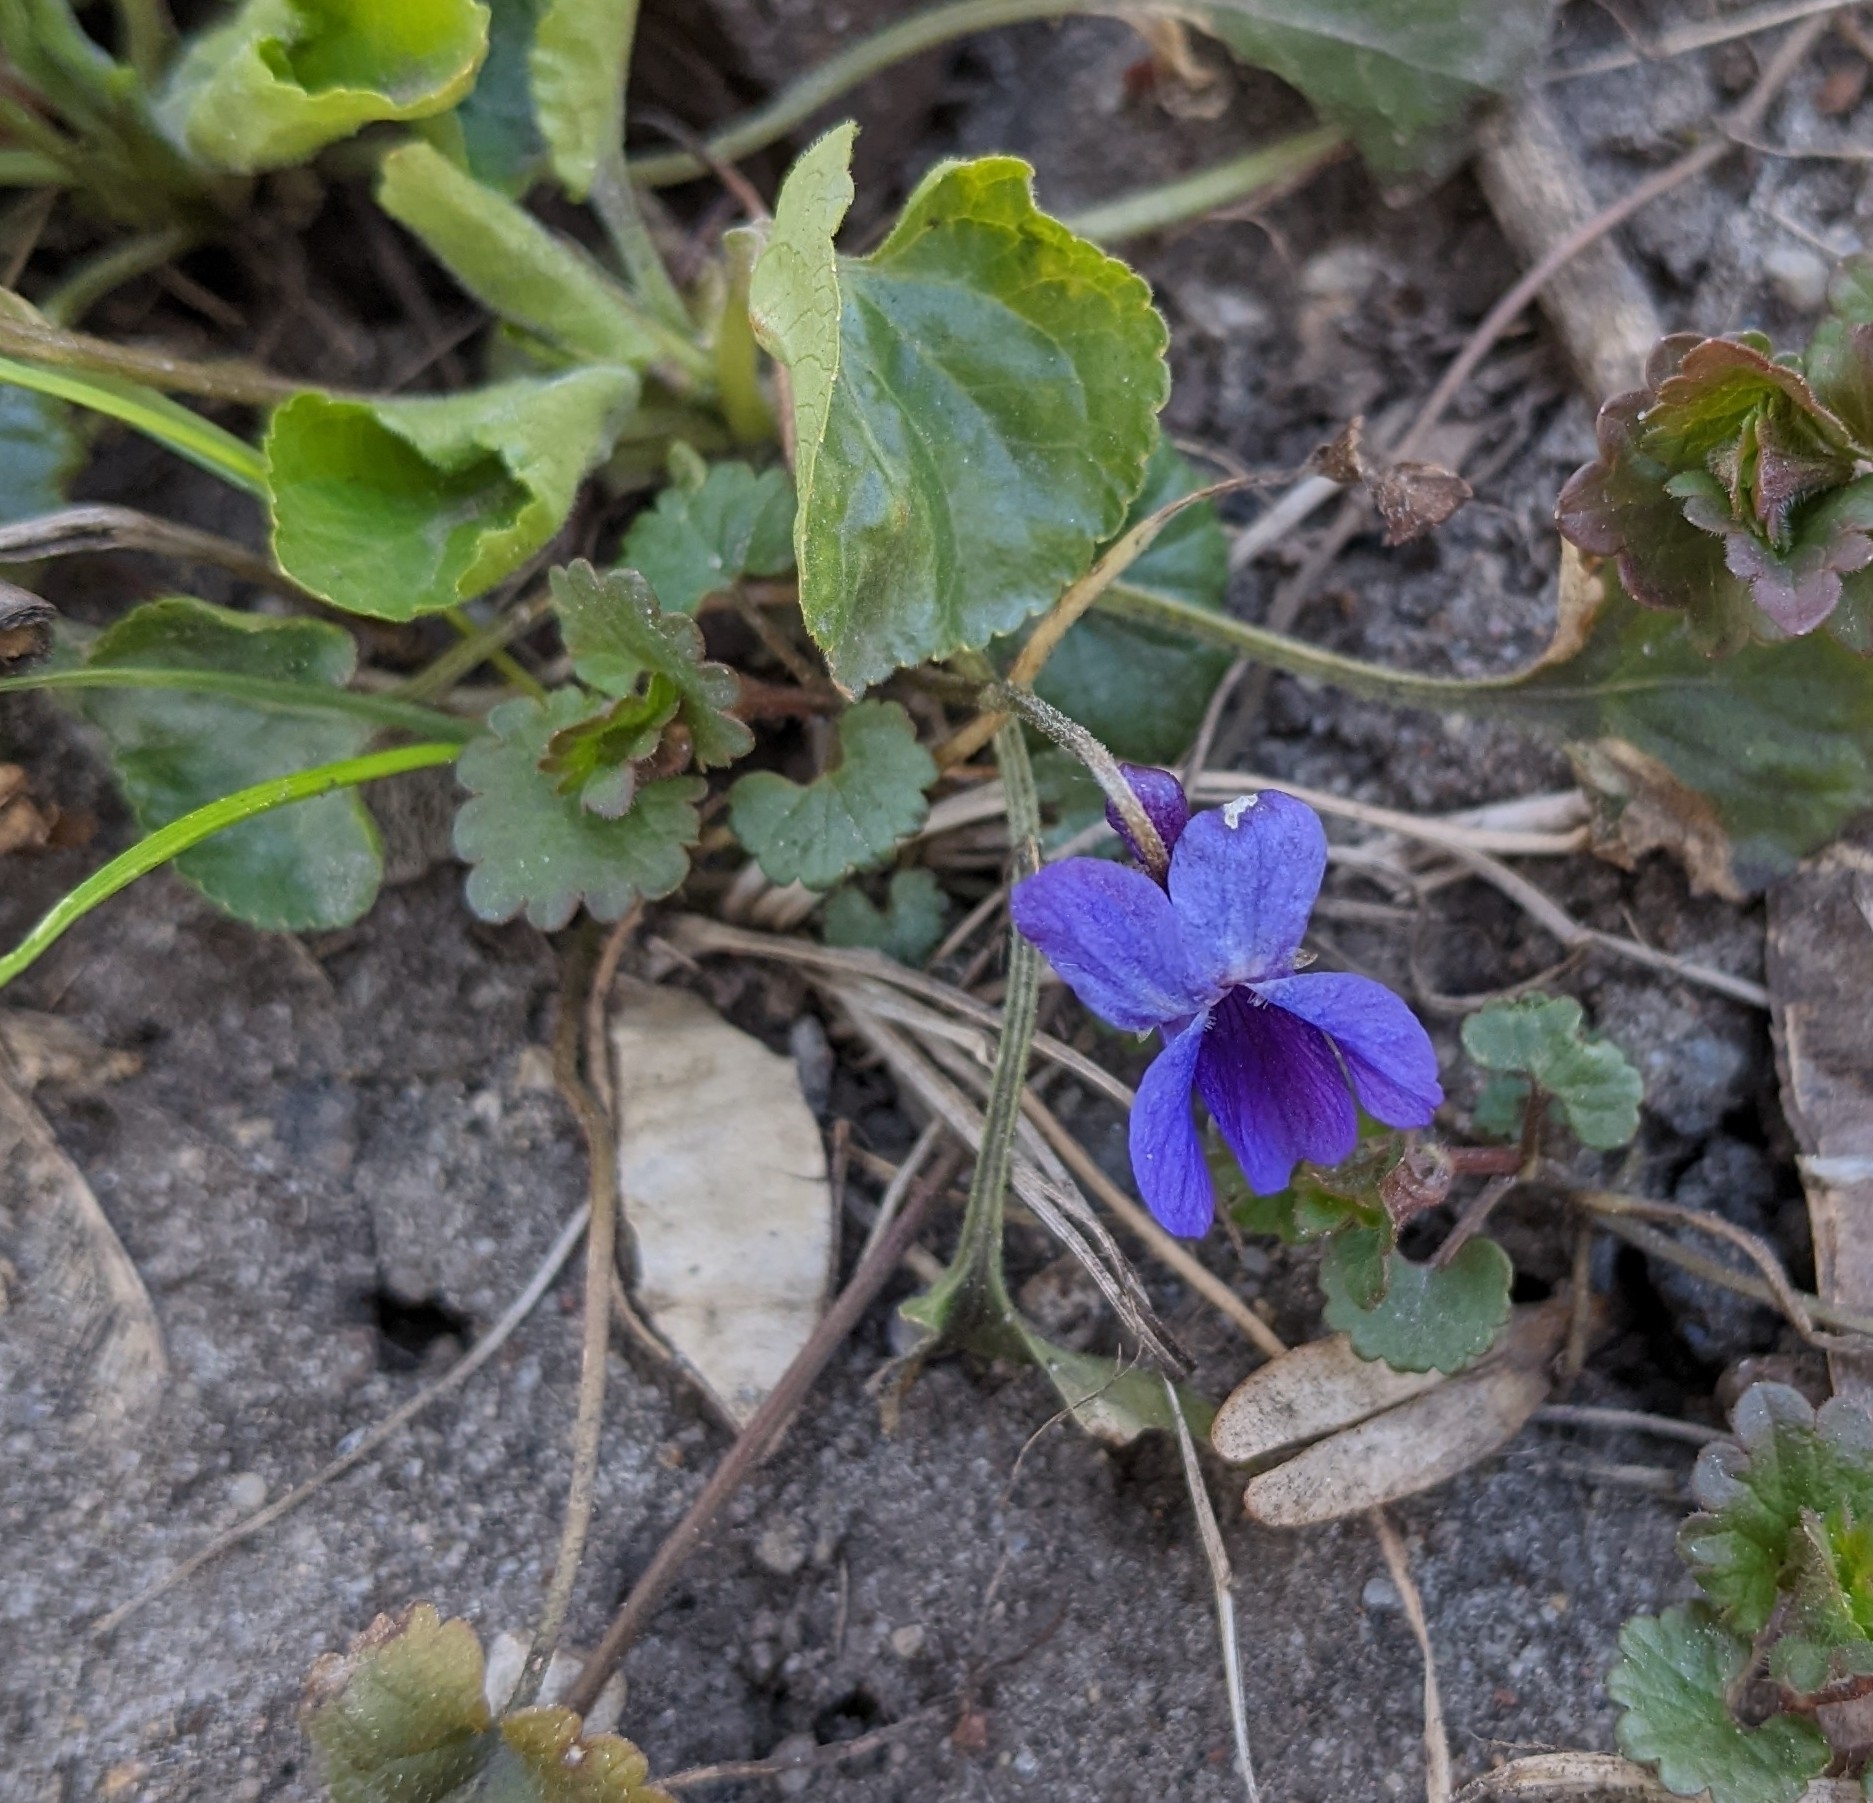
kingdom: Plantae
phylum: Tracheophyta
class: Magnoliopsida
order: Malpighiales
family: Violaceae
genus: Viola
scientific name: Viola odorata
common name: Sweet violet
